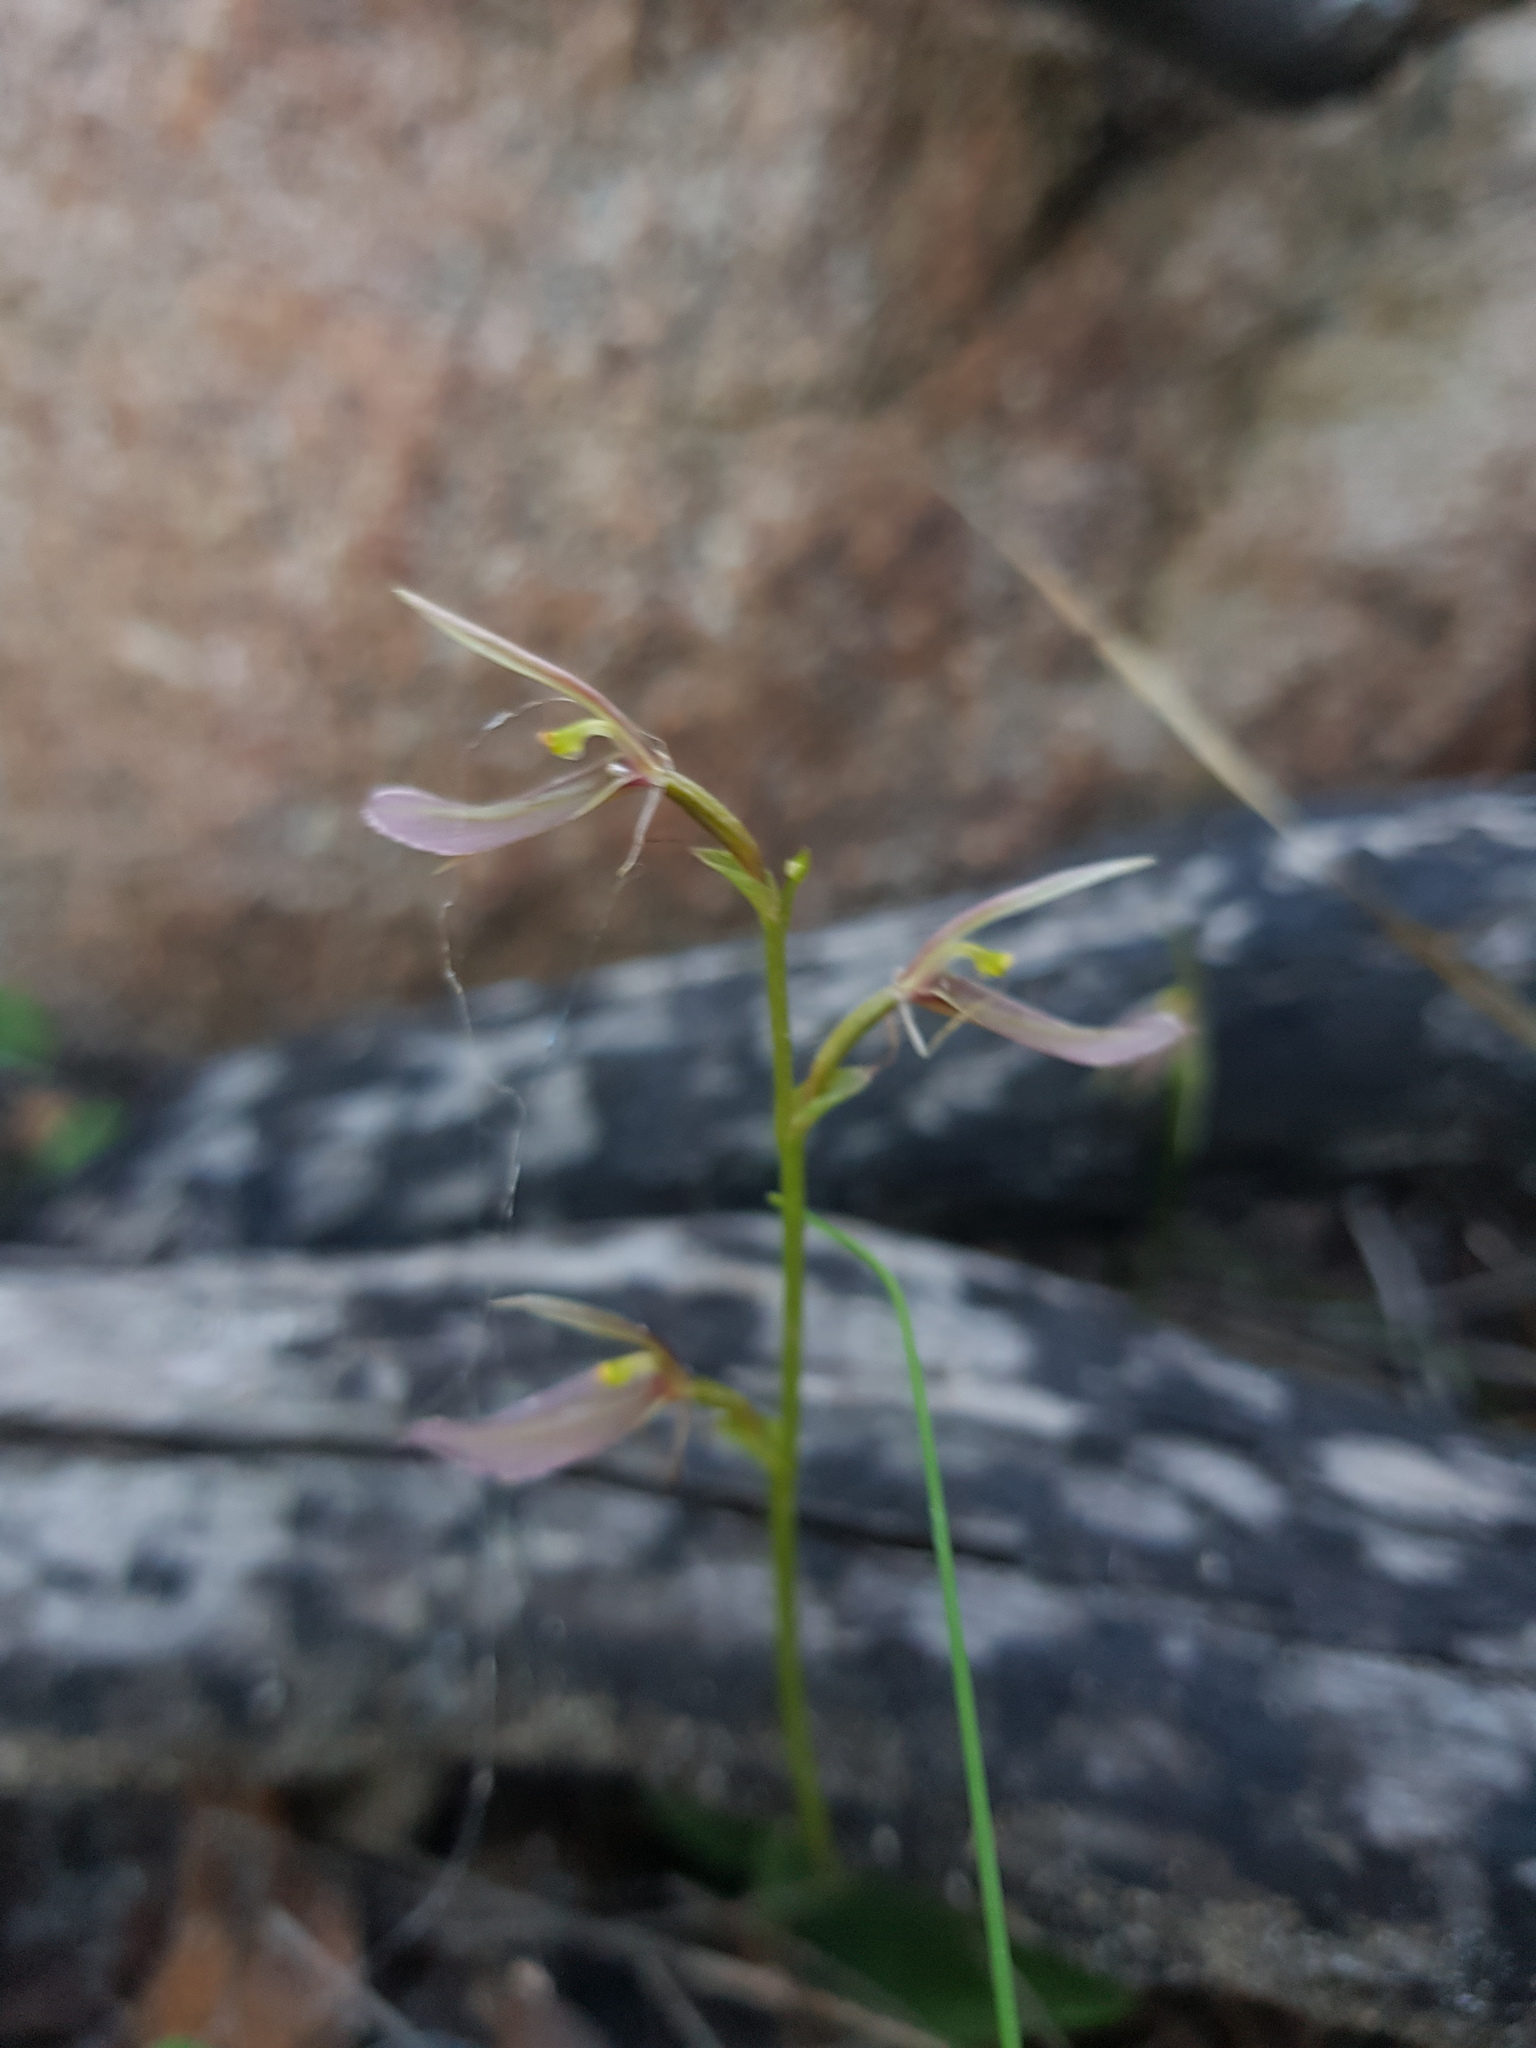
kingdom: Plantae
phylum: Tracheophyta
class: Liliopsida
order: Asparagales
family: Orchidaceae
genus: Cyrtostylis
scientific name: Cyrtostylis robusta
